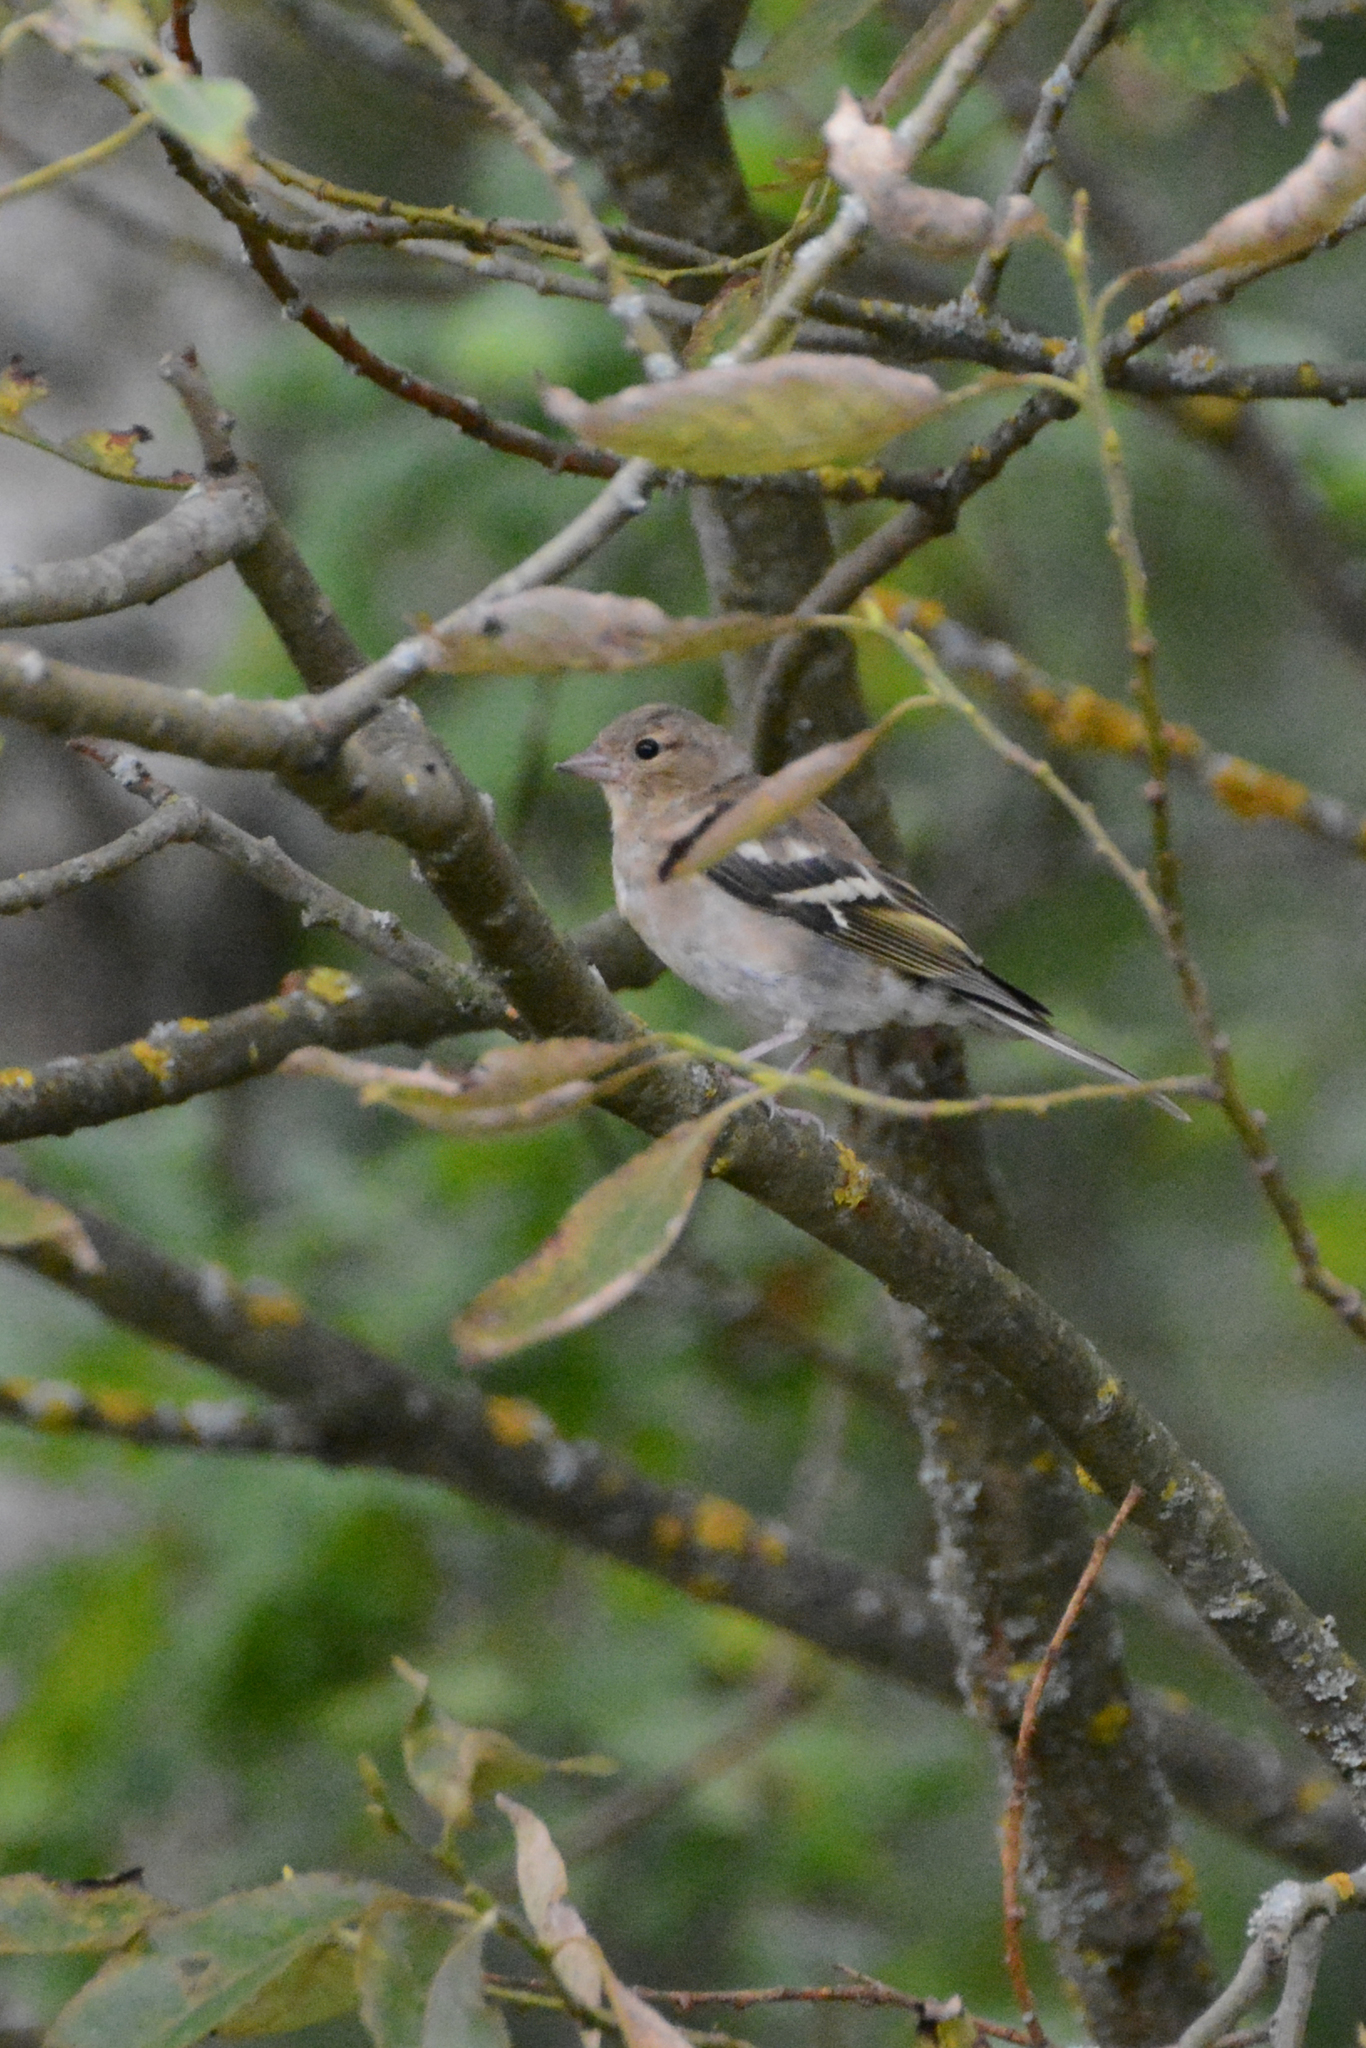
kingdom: Animalia
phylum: Chordata
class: Aves
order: Passeriformes
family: Fringillidae
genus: Fringilla
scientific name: Fringilla coelebs
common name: Common chaffinch
